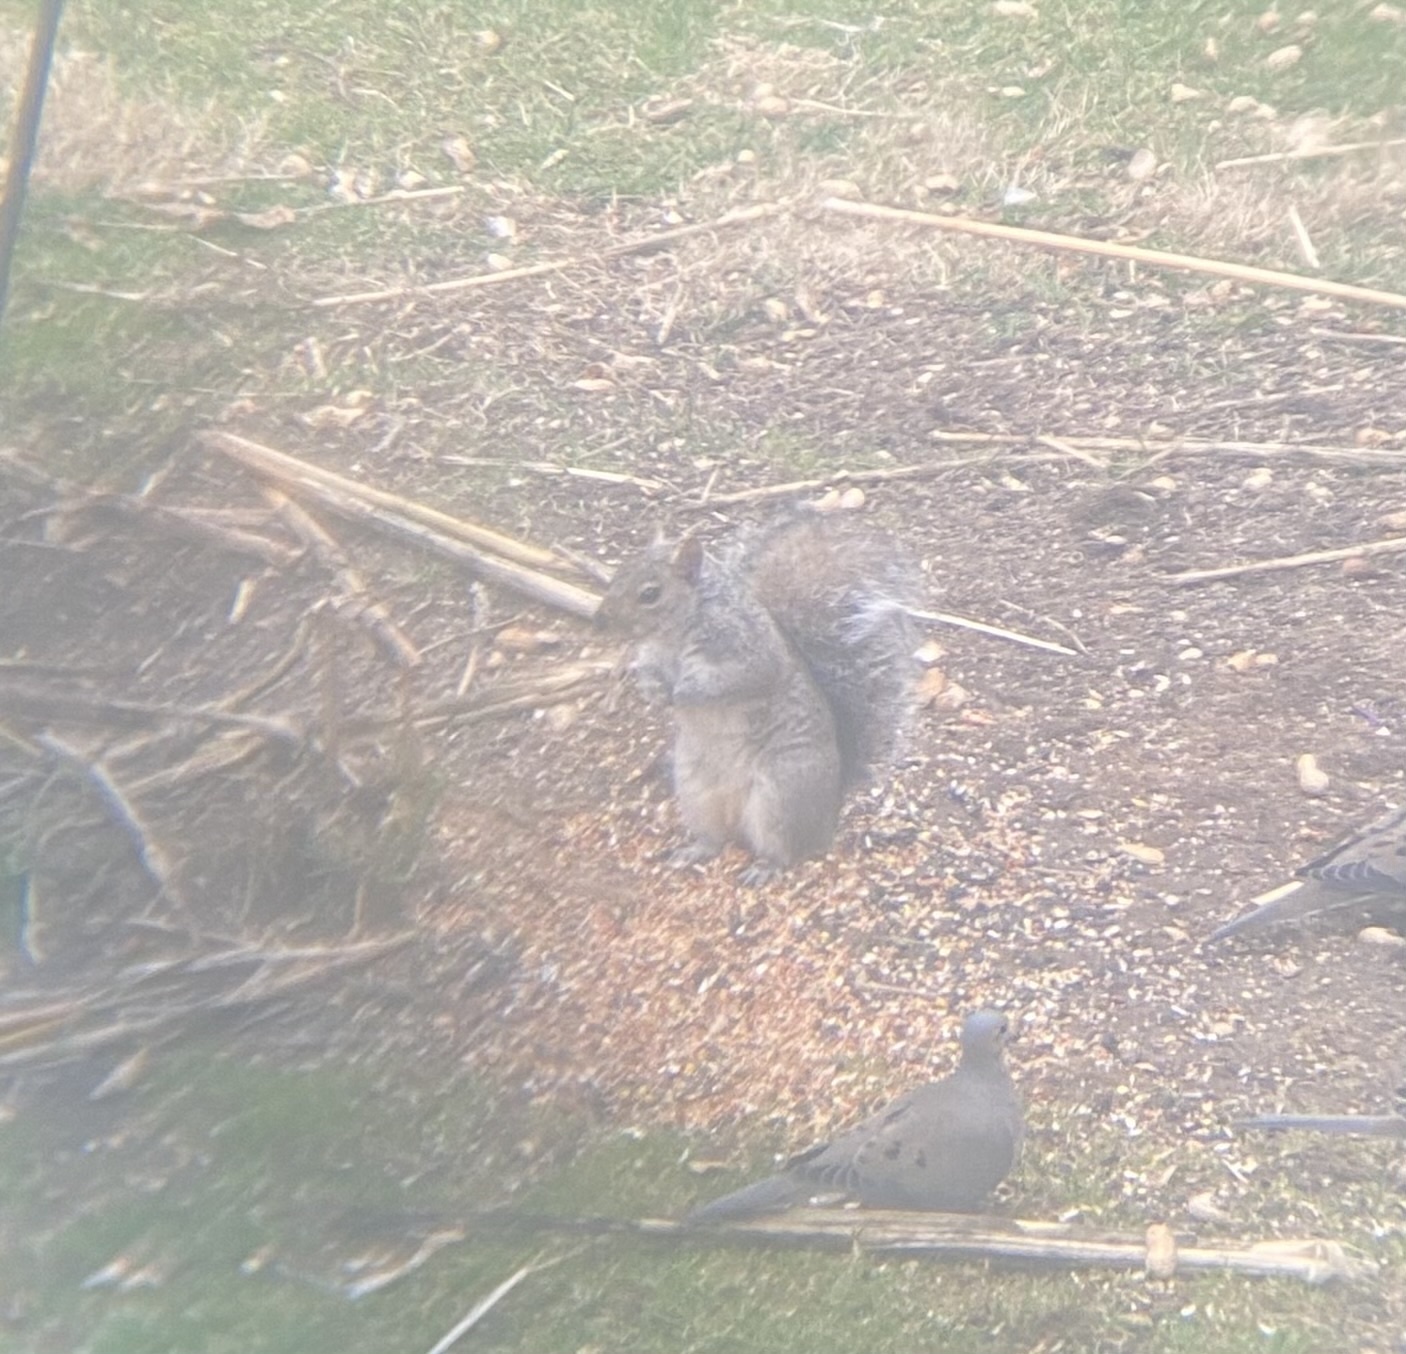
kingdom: Animalia
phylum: Chordata
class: Mammalia
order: Rodentia
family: Sciuridae
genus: Sciurus
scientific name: Sciurus carolinensis
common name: Eastern gray squirrel
